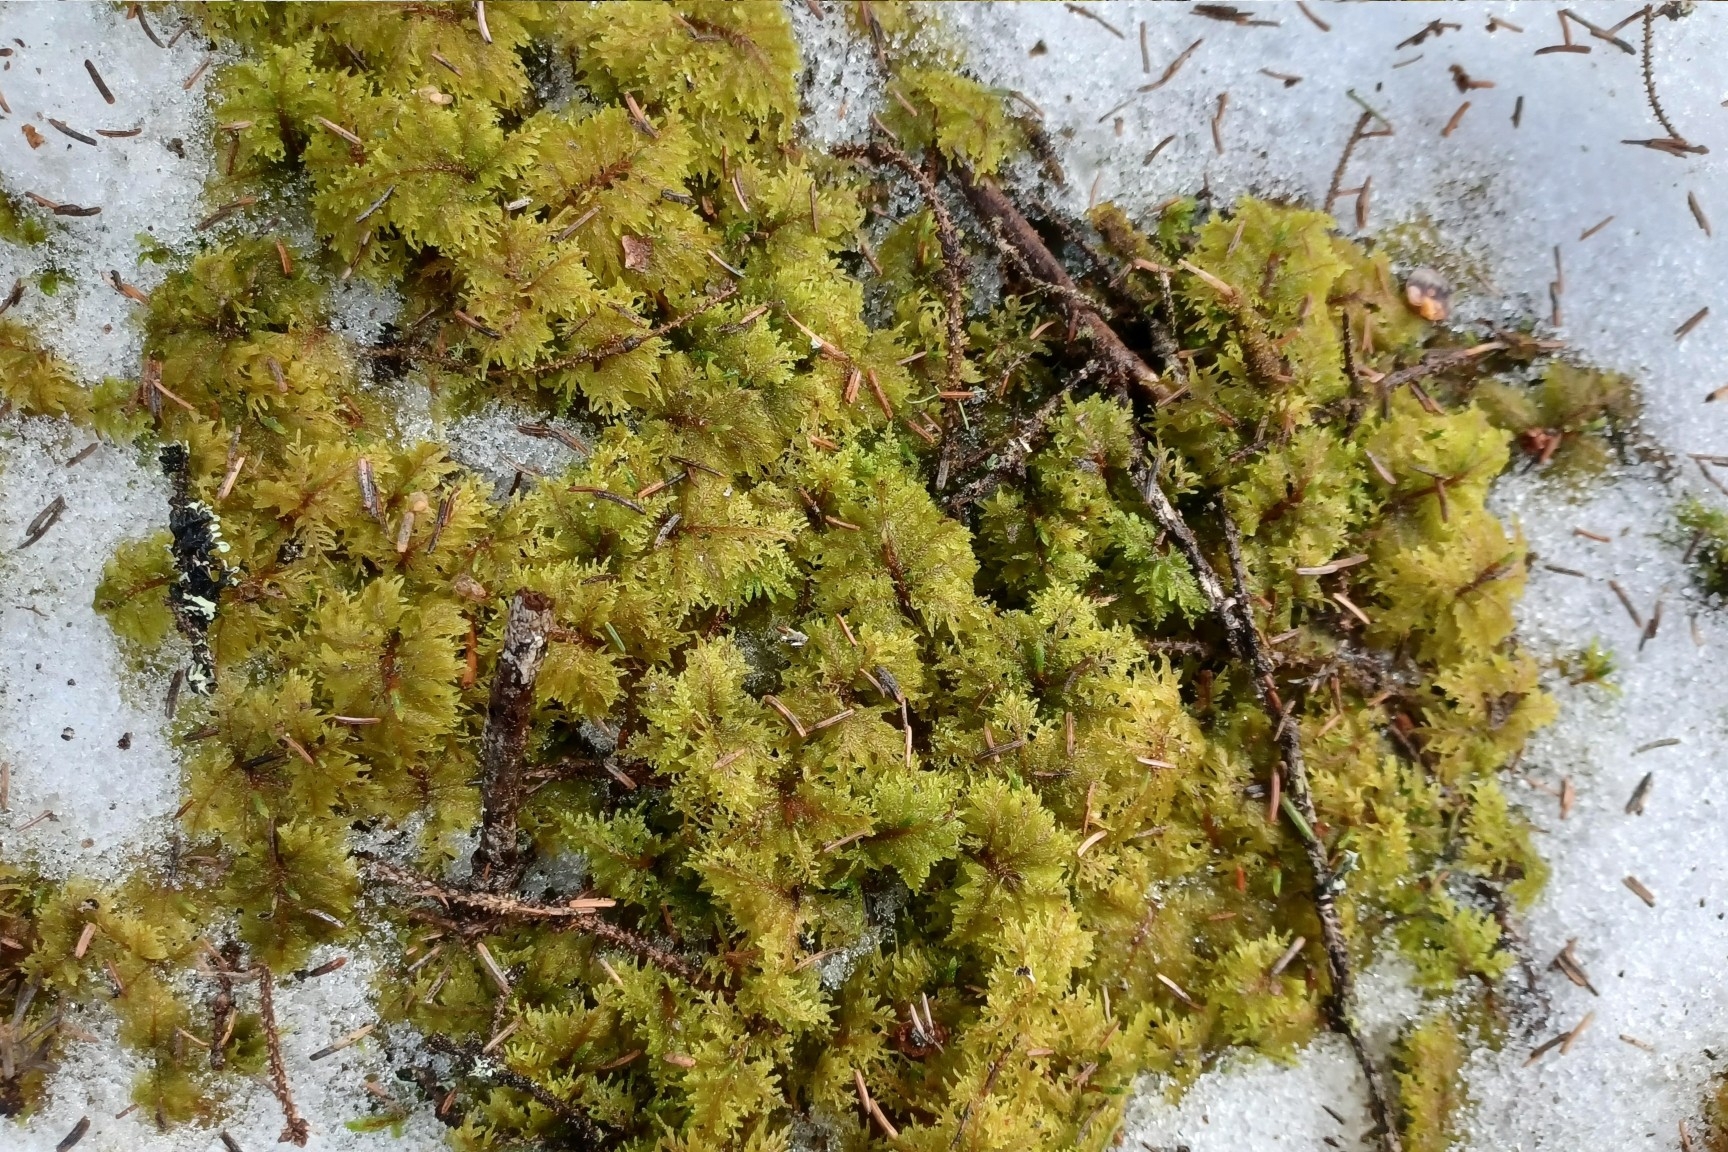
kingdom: Plantae
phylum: Bryophyta
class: Bryopsida
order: Hypnales
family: Hylocomiaceae
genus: Hylocomium
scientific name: Hylocomium splendens
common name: Stairstep moss
